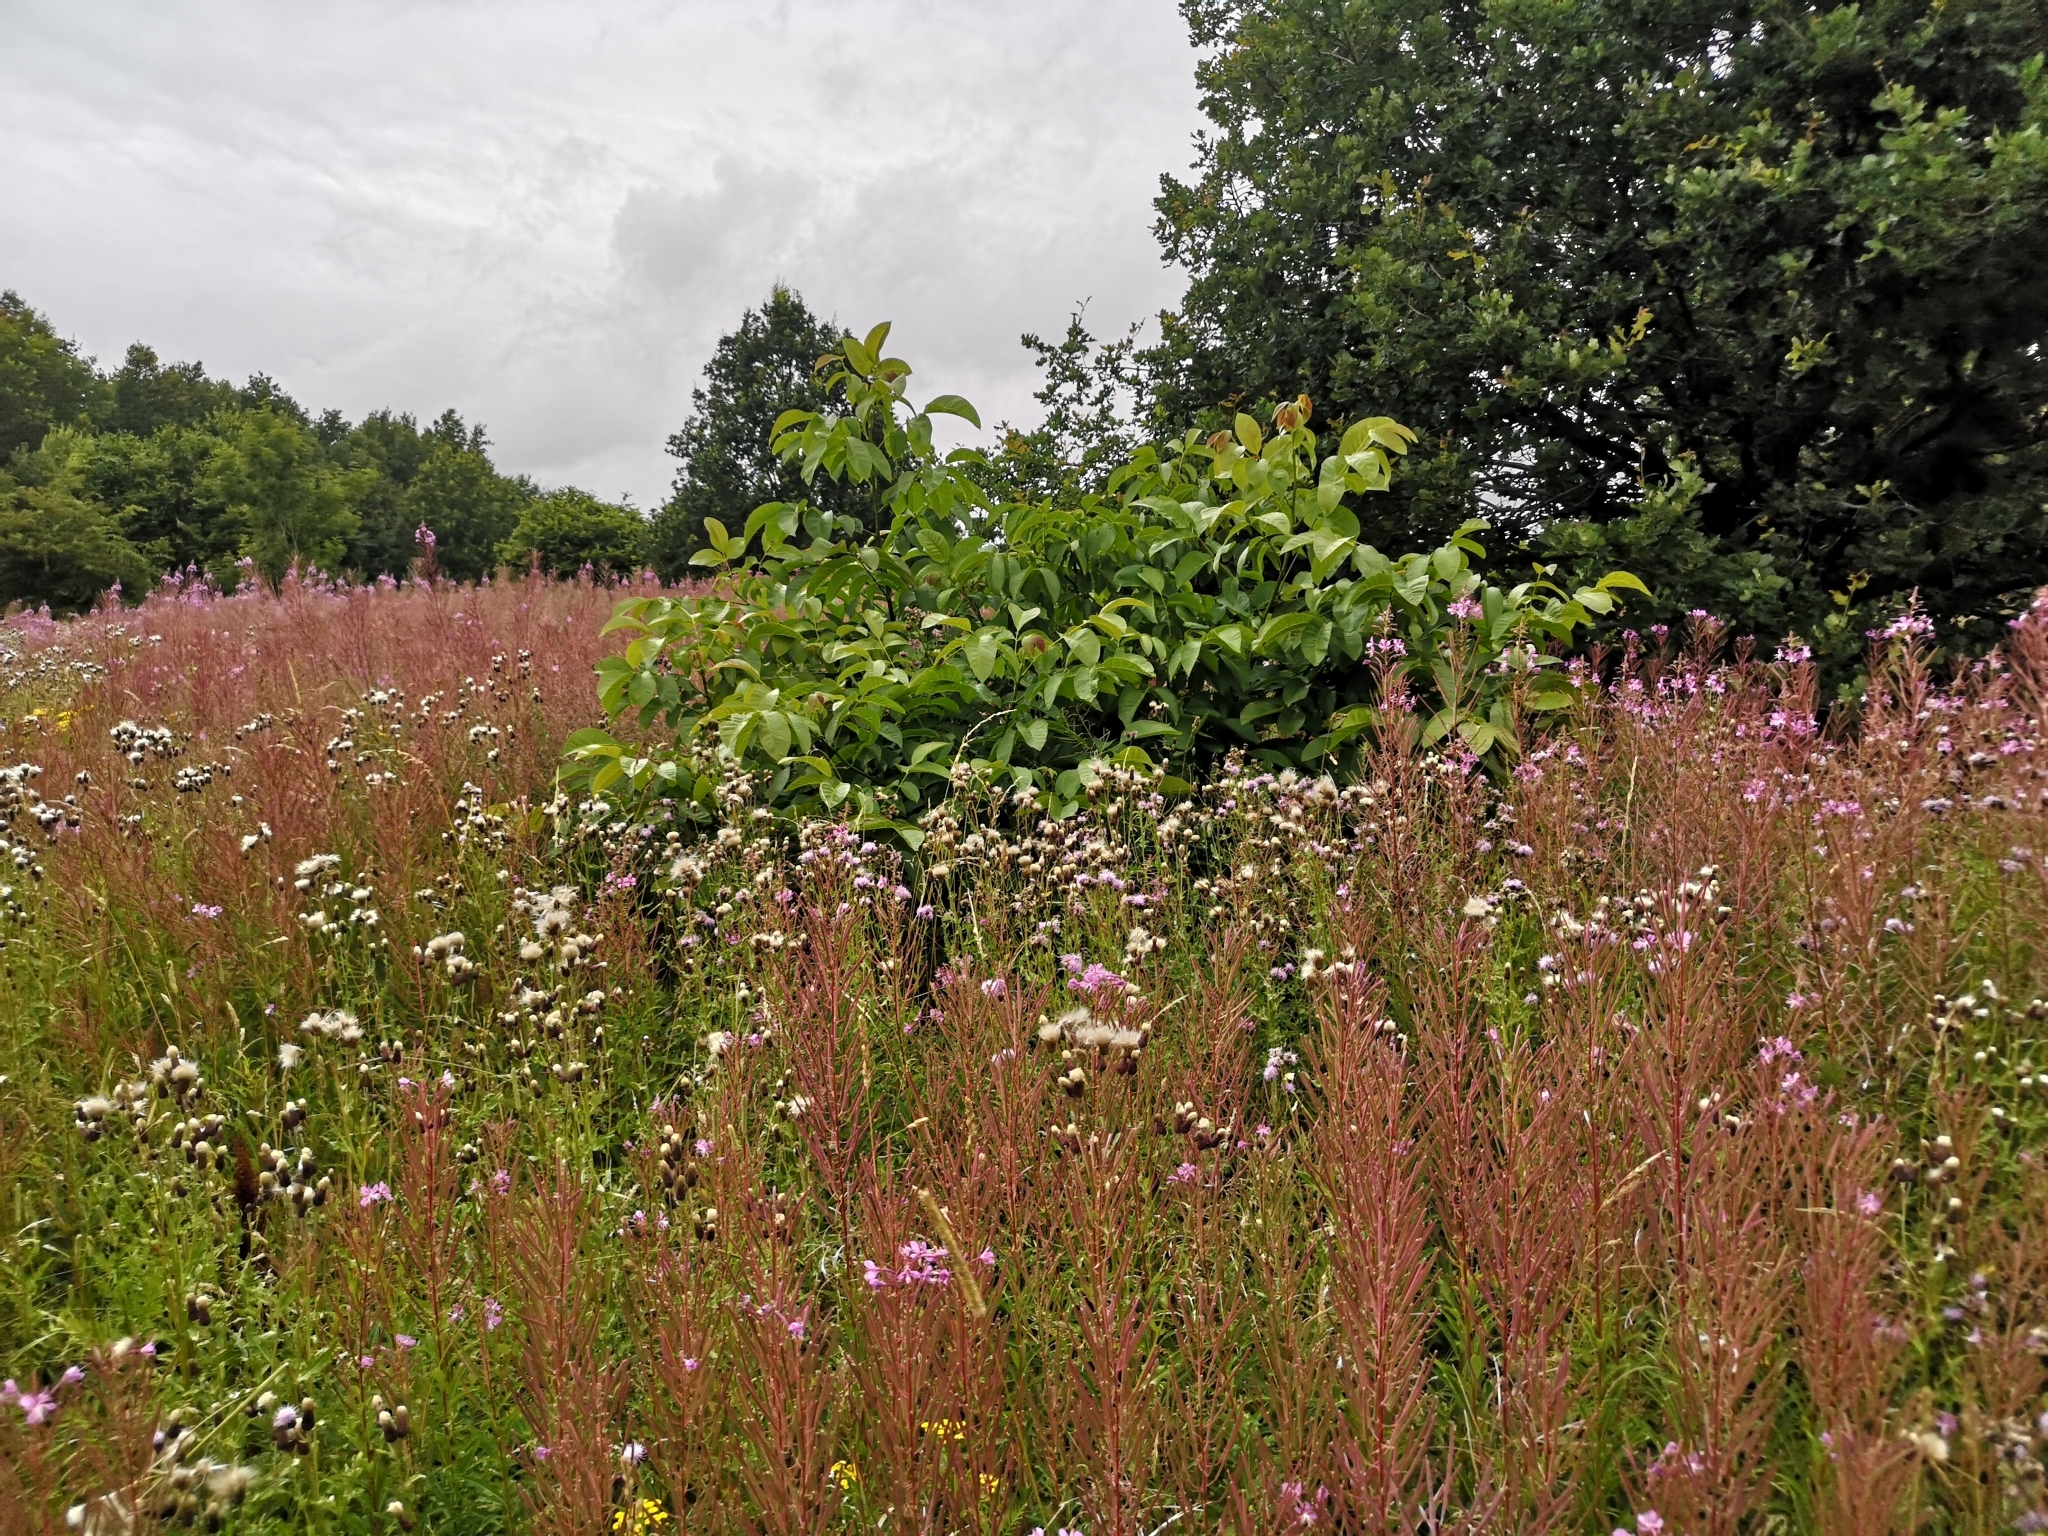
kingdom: Plantae
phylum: Tracheophyta
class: Magnoliopsida
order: Myrtales
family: Onagraceae
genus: Chamaenerion
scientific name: Chamaenerion angustifolium
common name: Fireweed
